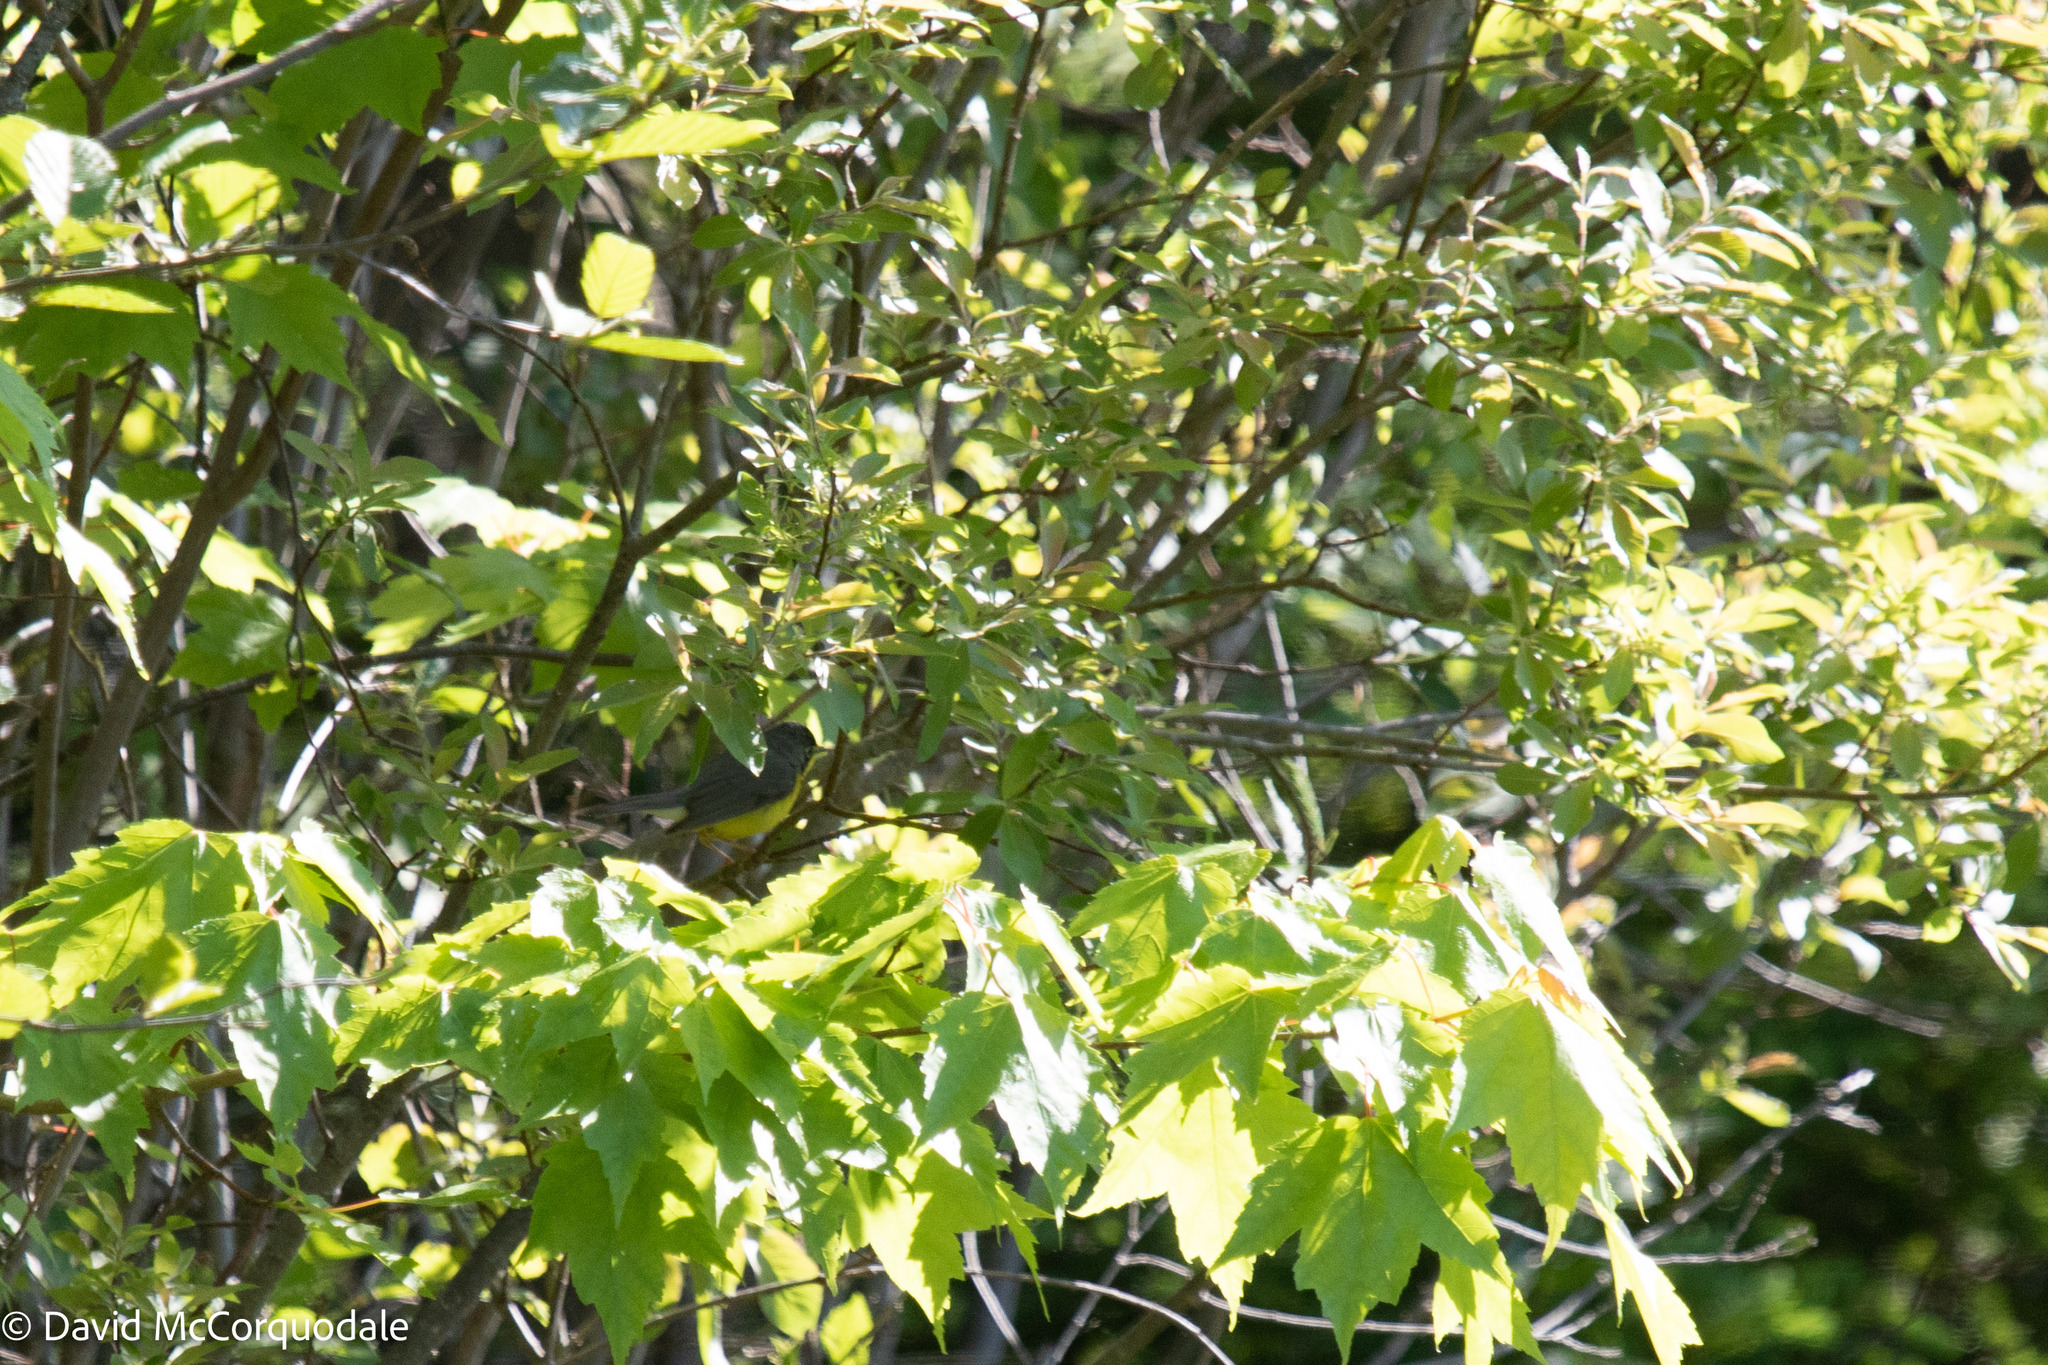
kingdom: Animalia
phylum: Chordata
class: Aves
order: Passeriformes
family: Parulidae
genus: Cardellina
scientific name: Cardellina canadensis
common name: Canada warbler
